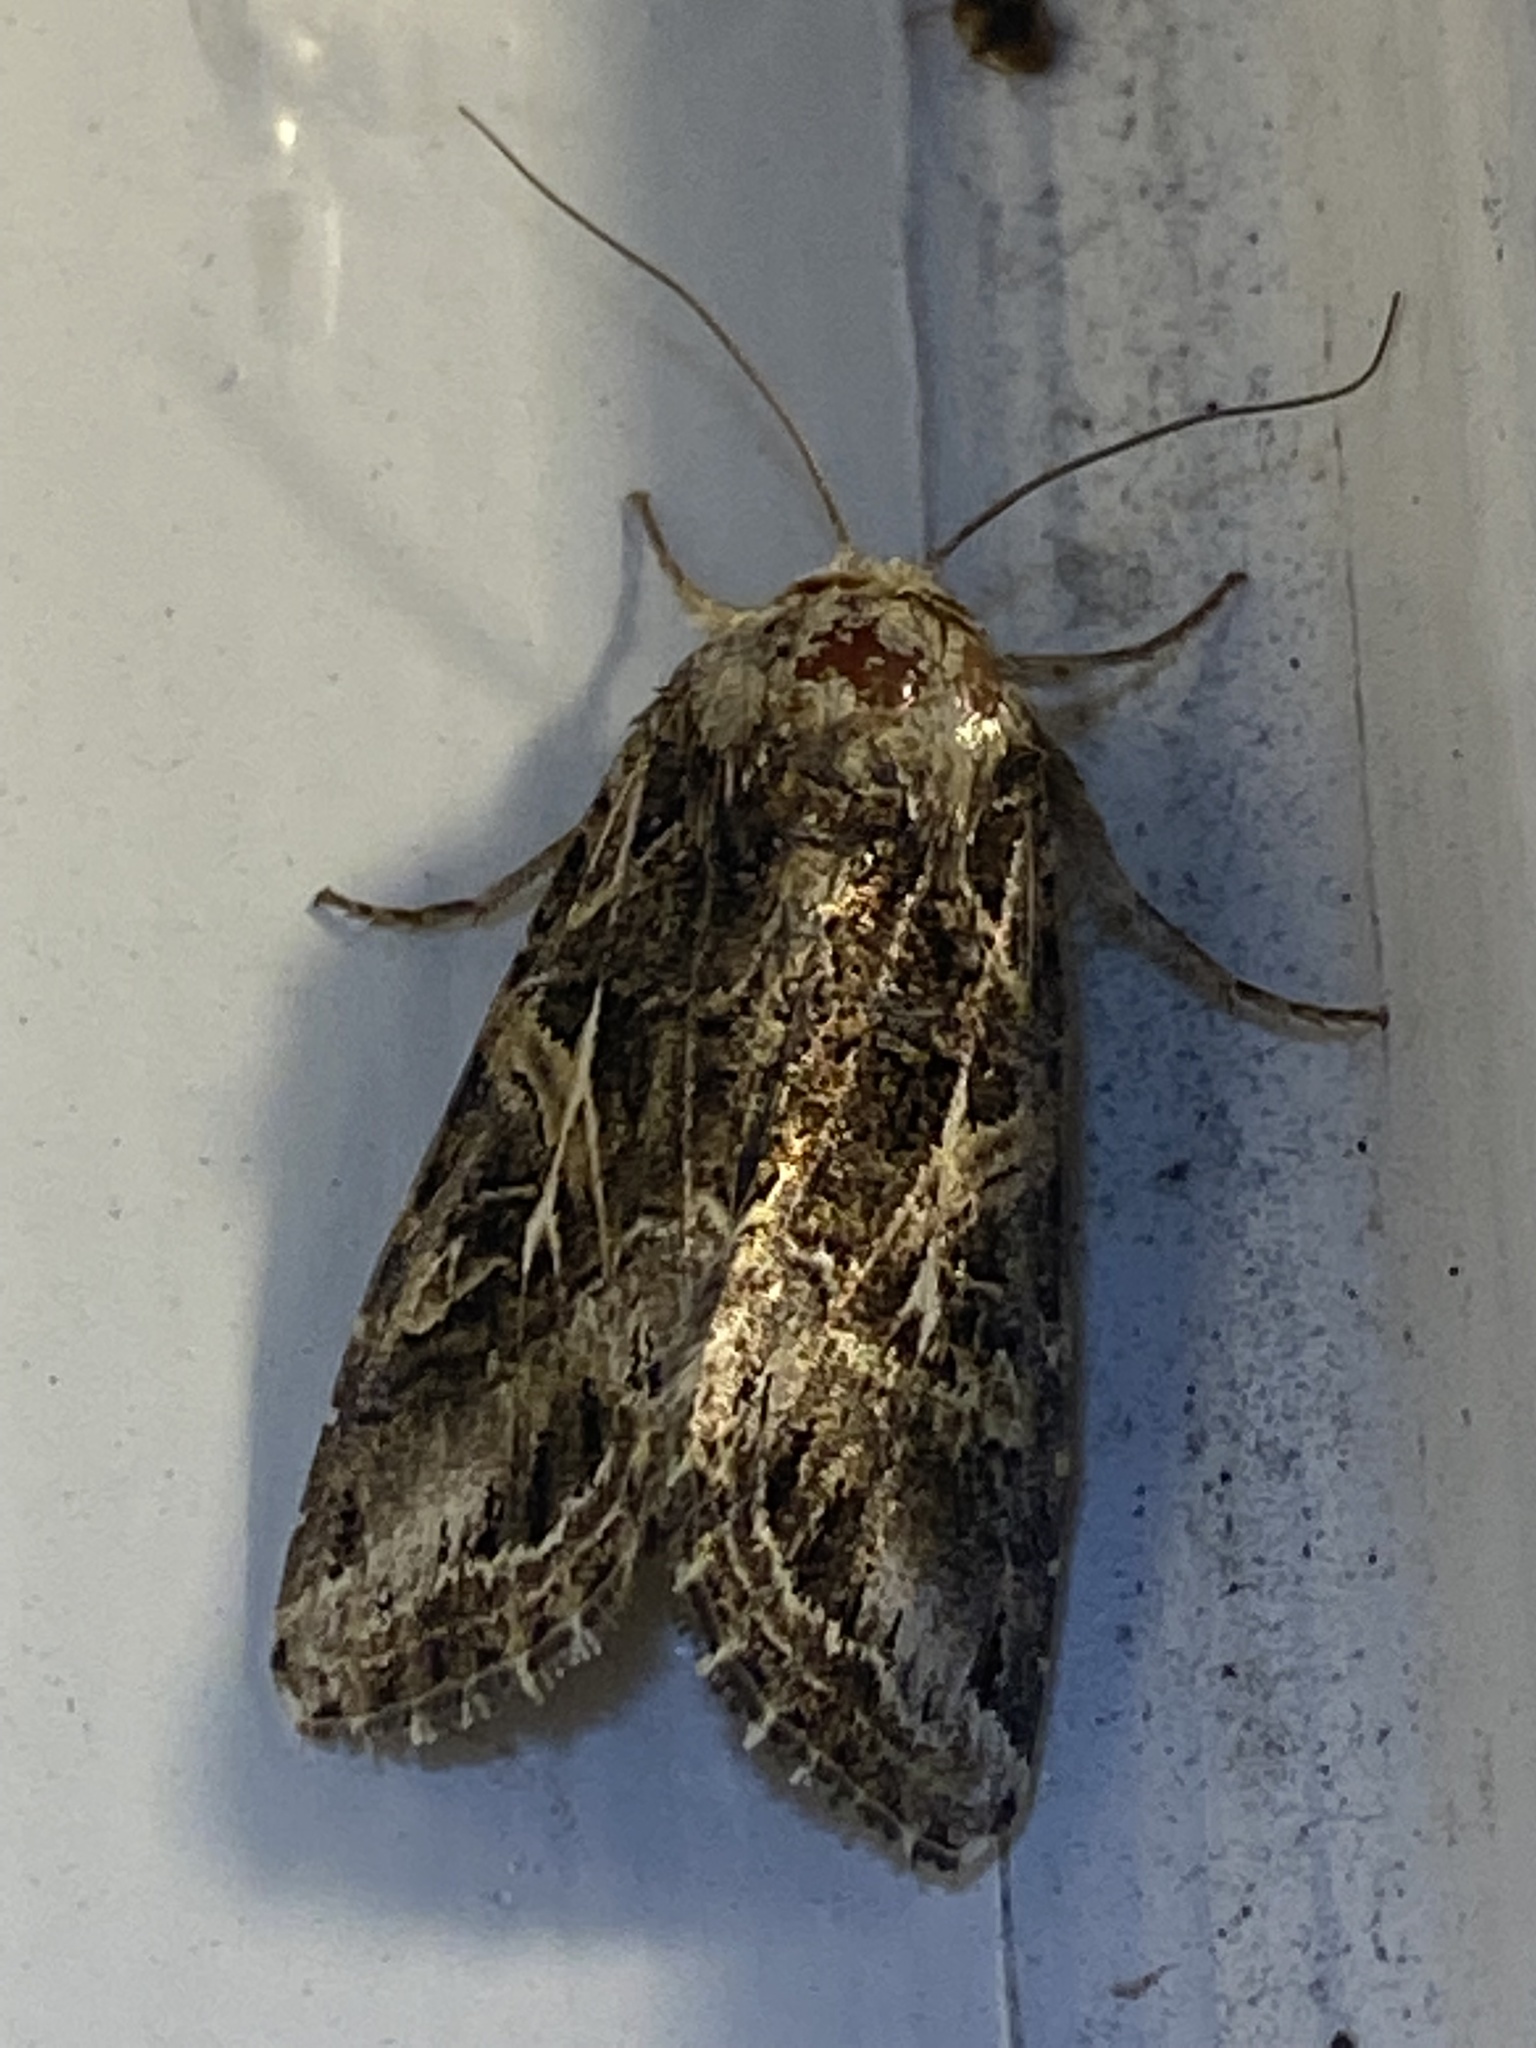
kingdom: Animalia
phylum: Arthropoda
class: Insecta
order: Lepidoptera
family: Noctuidae
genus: Spodoptera
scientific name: Spodoptera ornithogalli
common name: Yellow-striped armyworm
